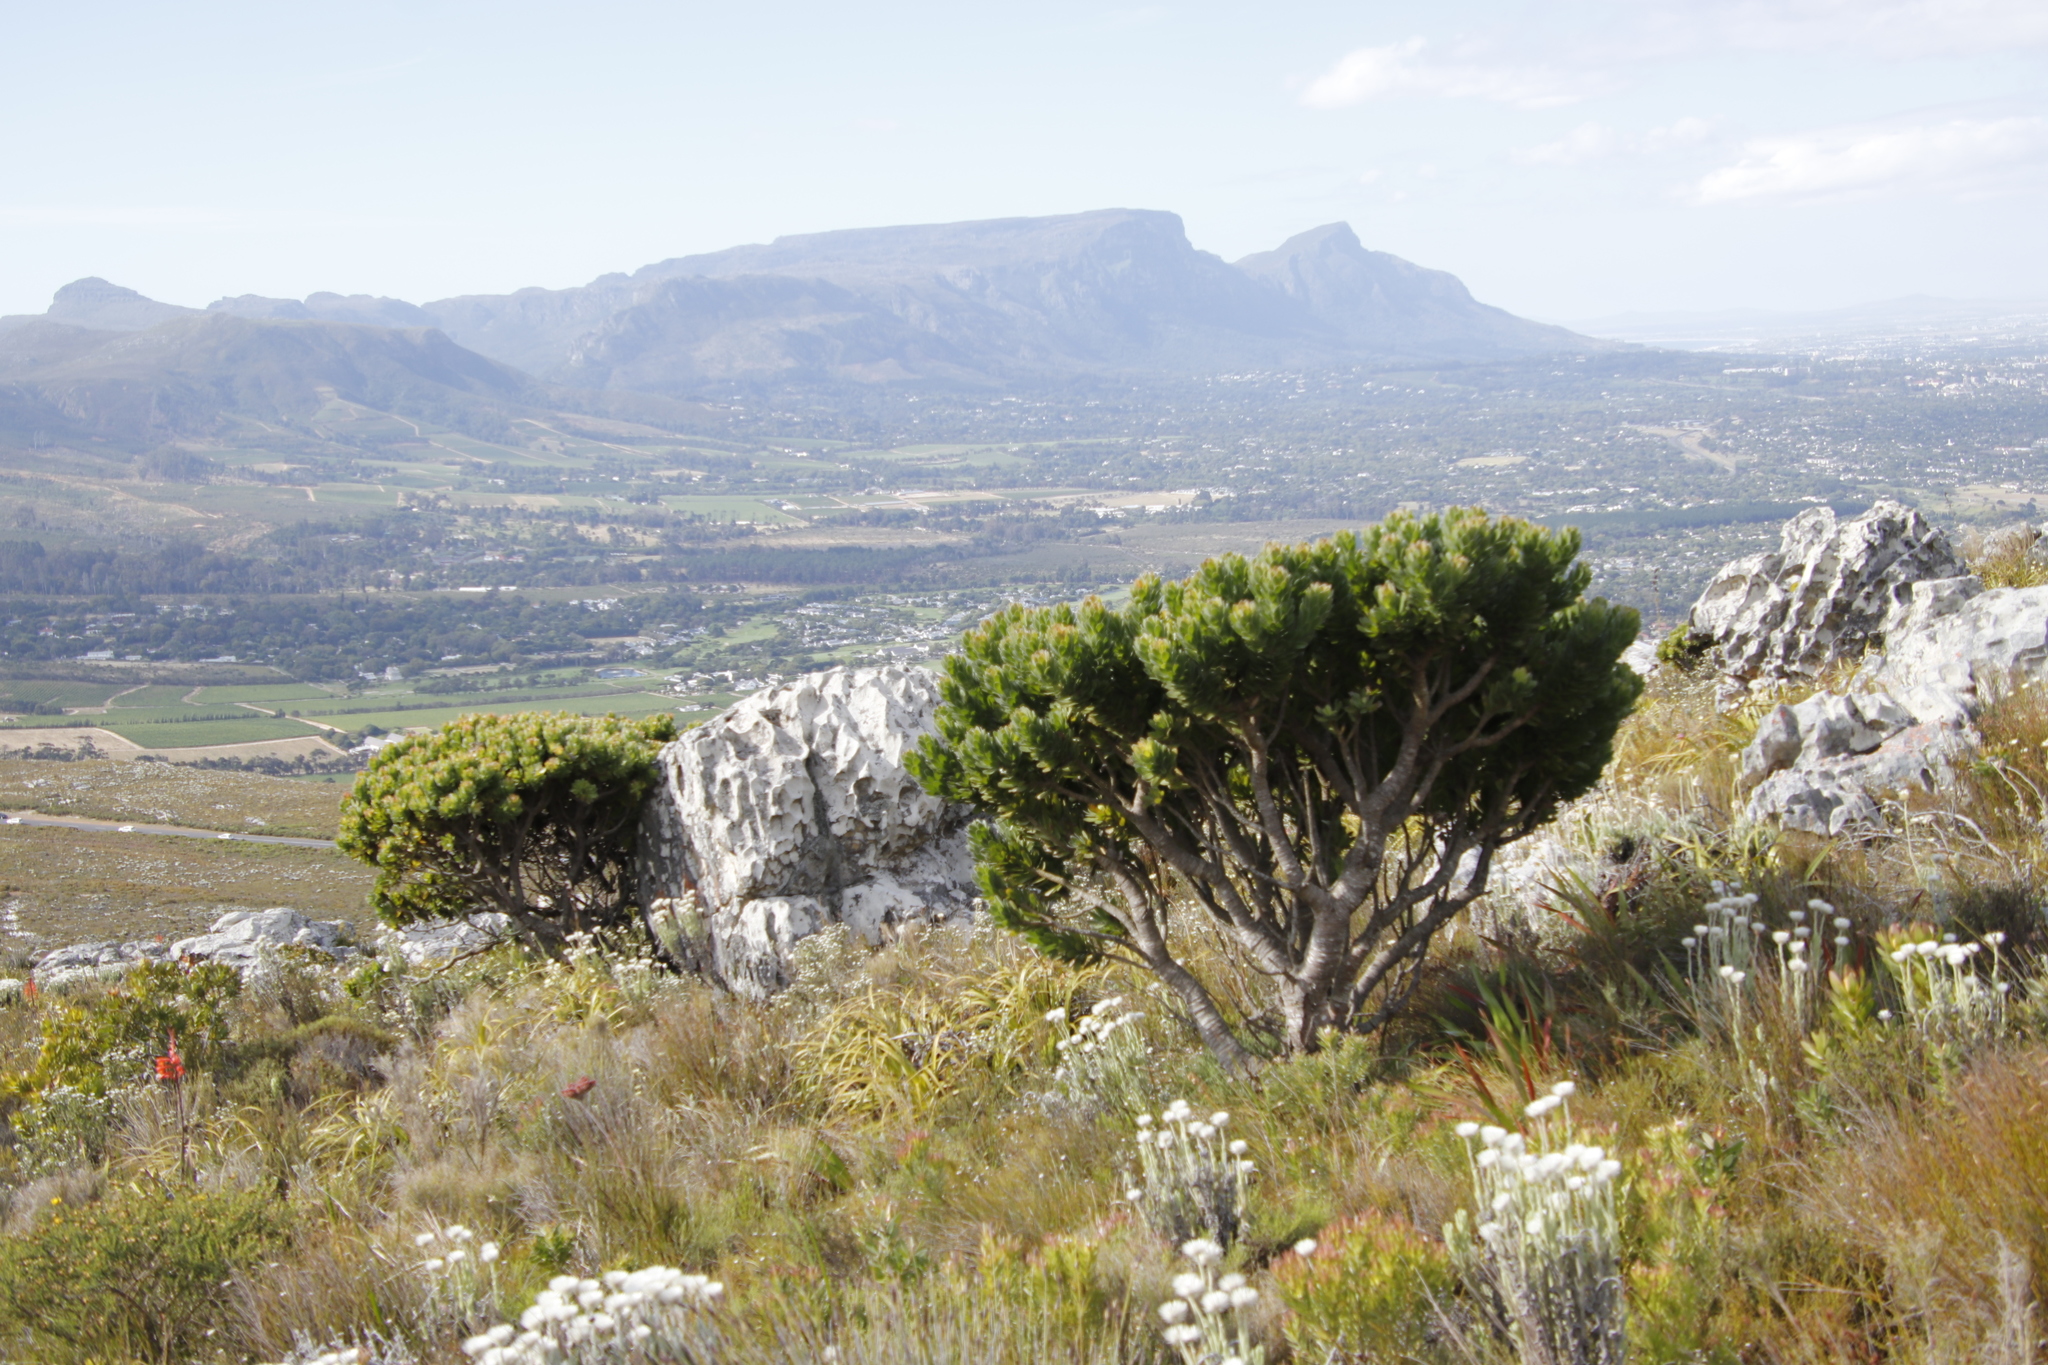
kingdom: Plantae
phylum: Tracheophyta
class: Magnoliopsida
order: Proteales
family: Proteaceae
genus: Mimetes
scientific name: Mimetes fimbriifolius
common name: Fringed bottlebrush
